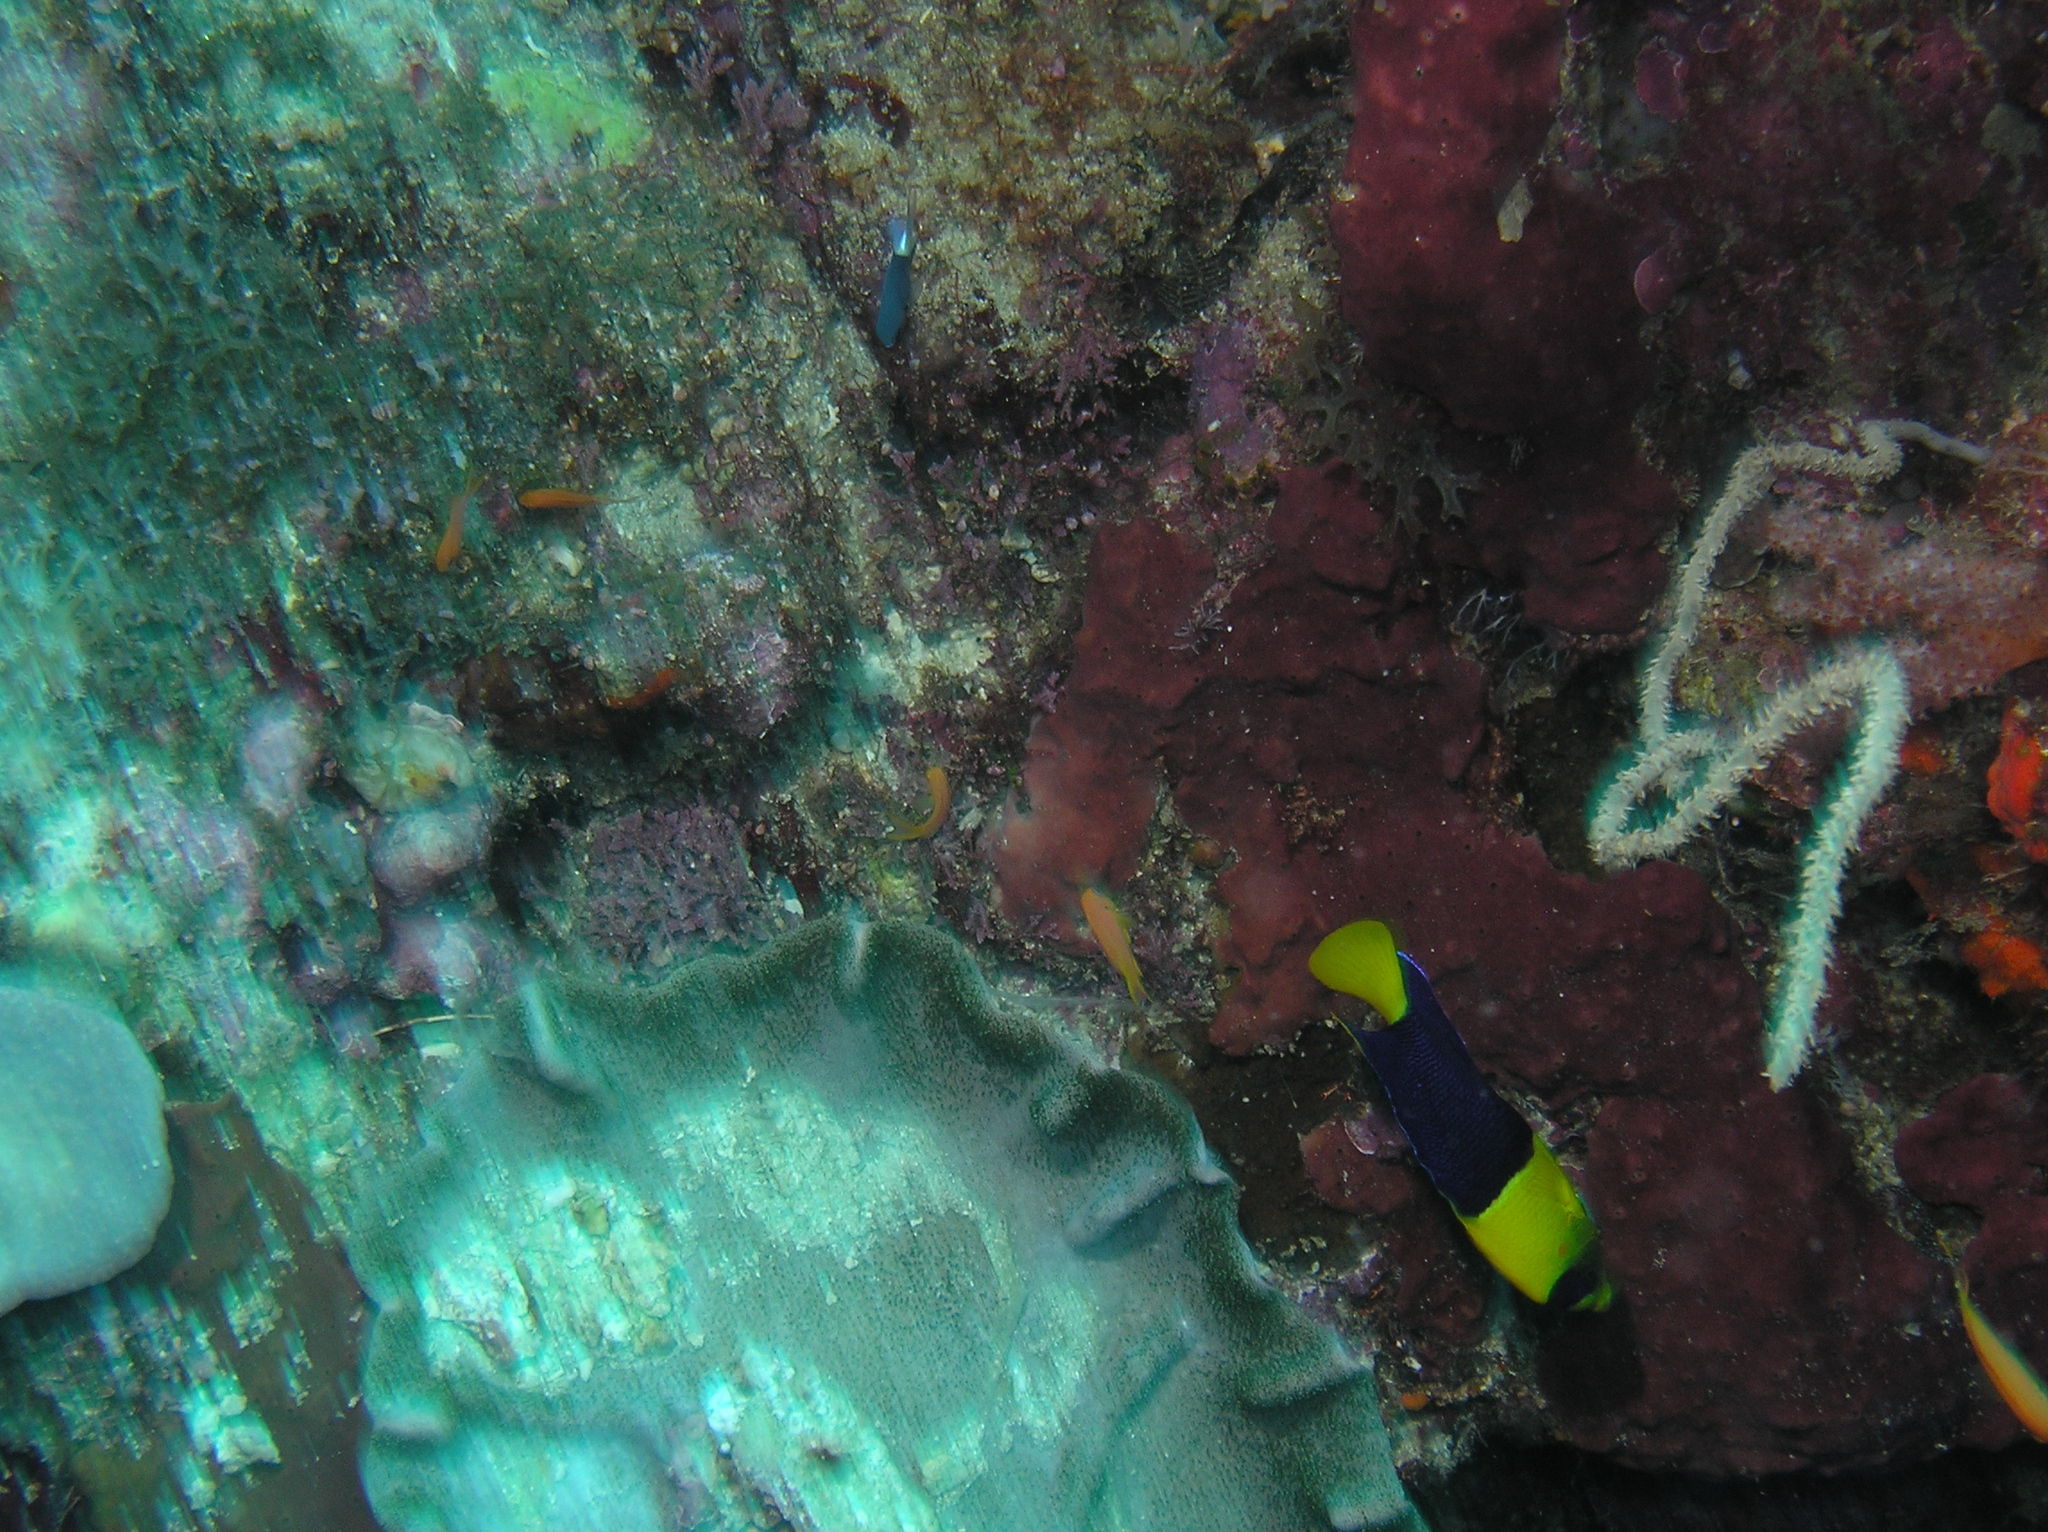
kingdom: Animalia
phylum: Chordata
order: Perciformes
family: Pomacanthidae
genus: Centropyge
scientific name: Centropyge bicolor
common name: Bicolor angelfish
